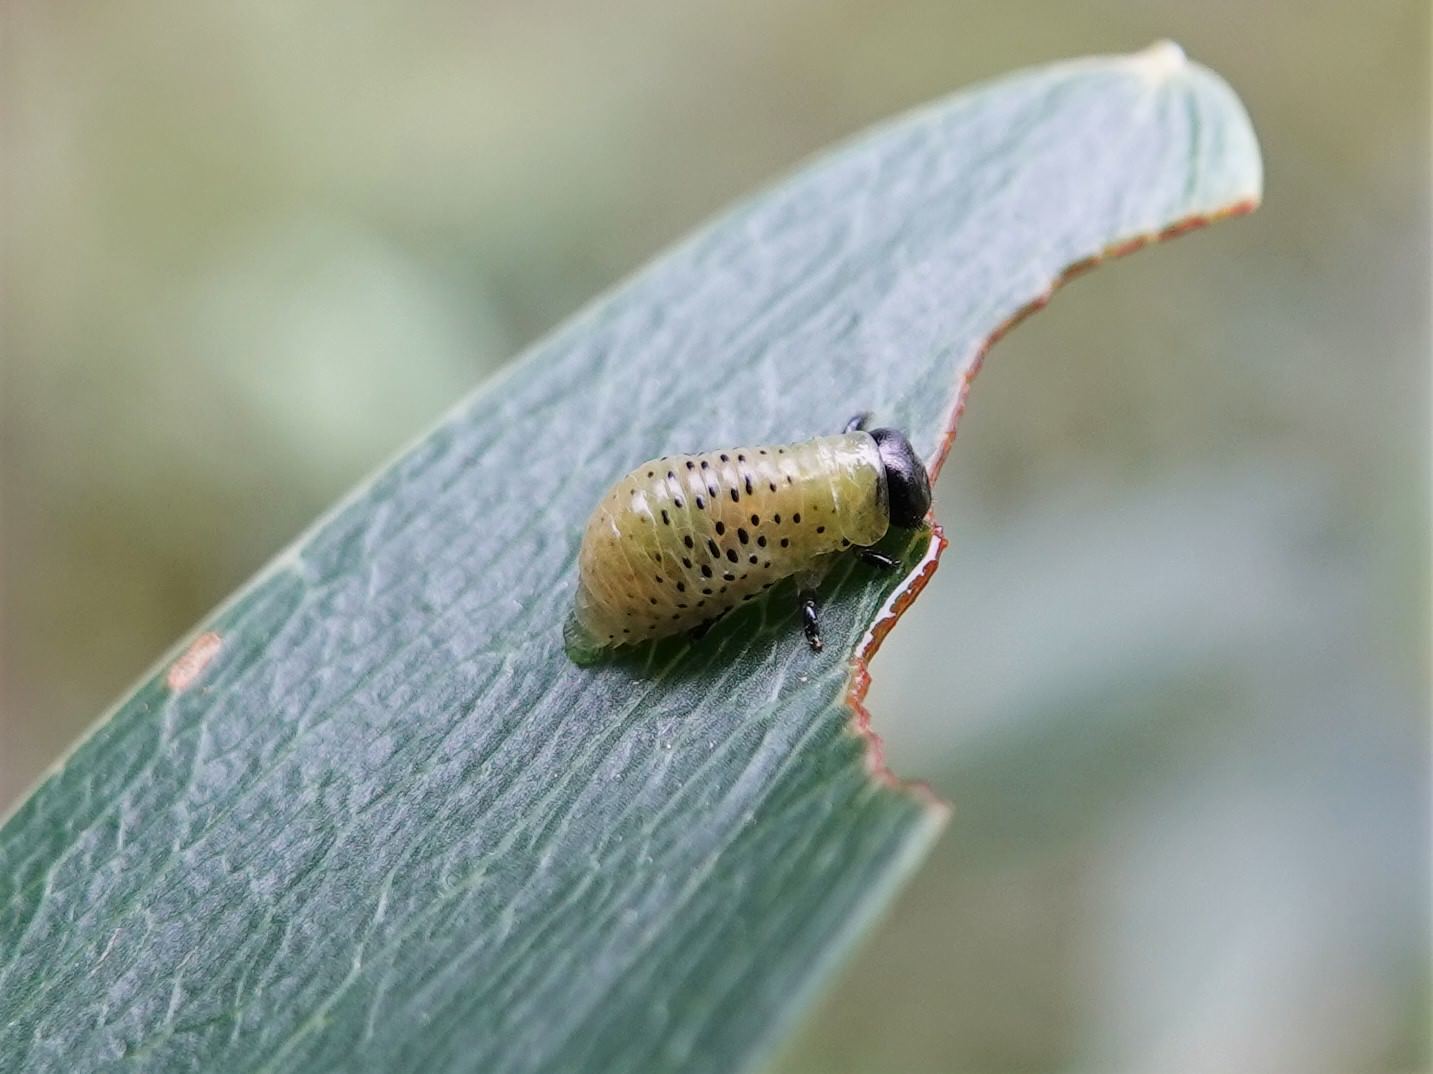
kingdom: Animalia
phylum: Arthropoda
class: Insecta
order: Coleoptera
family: Chrysomelidae
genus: Dicranosterna
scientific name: Dicranosterna
